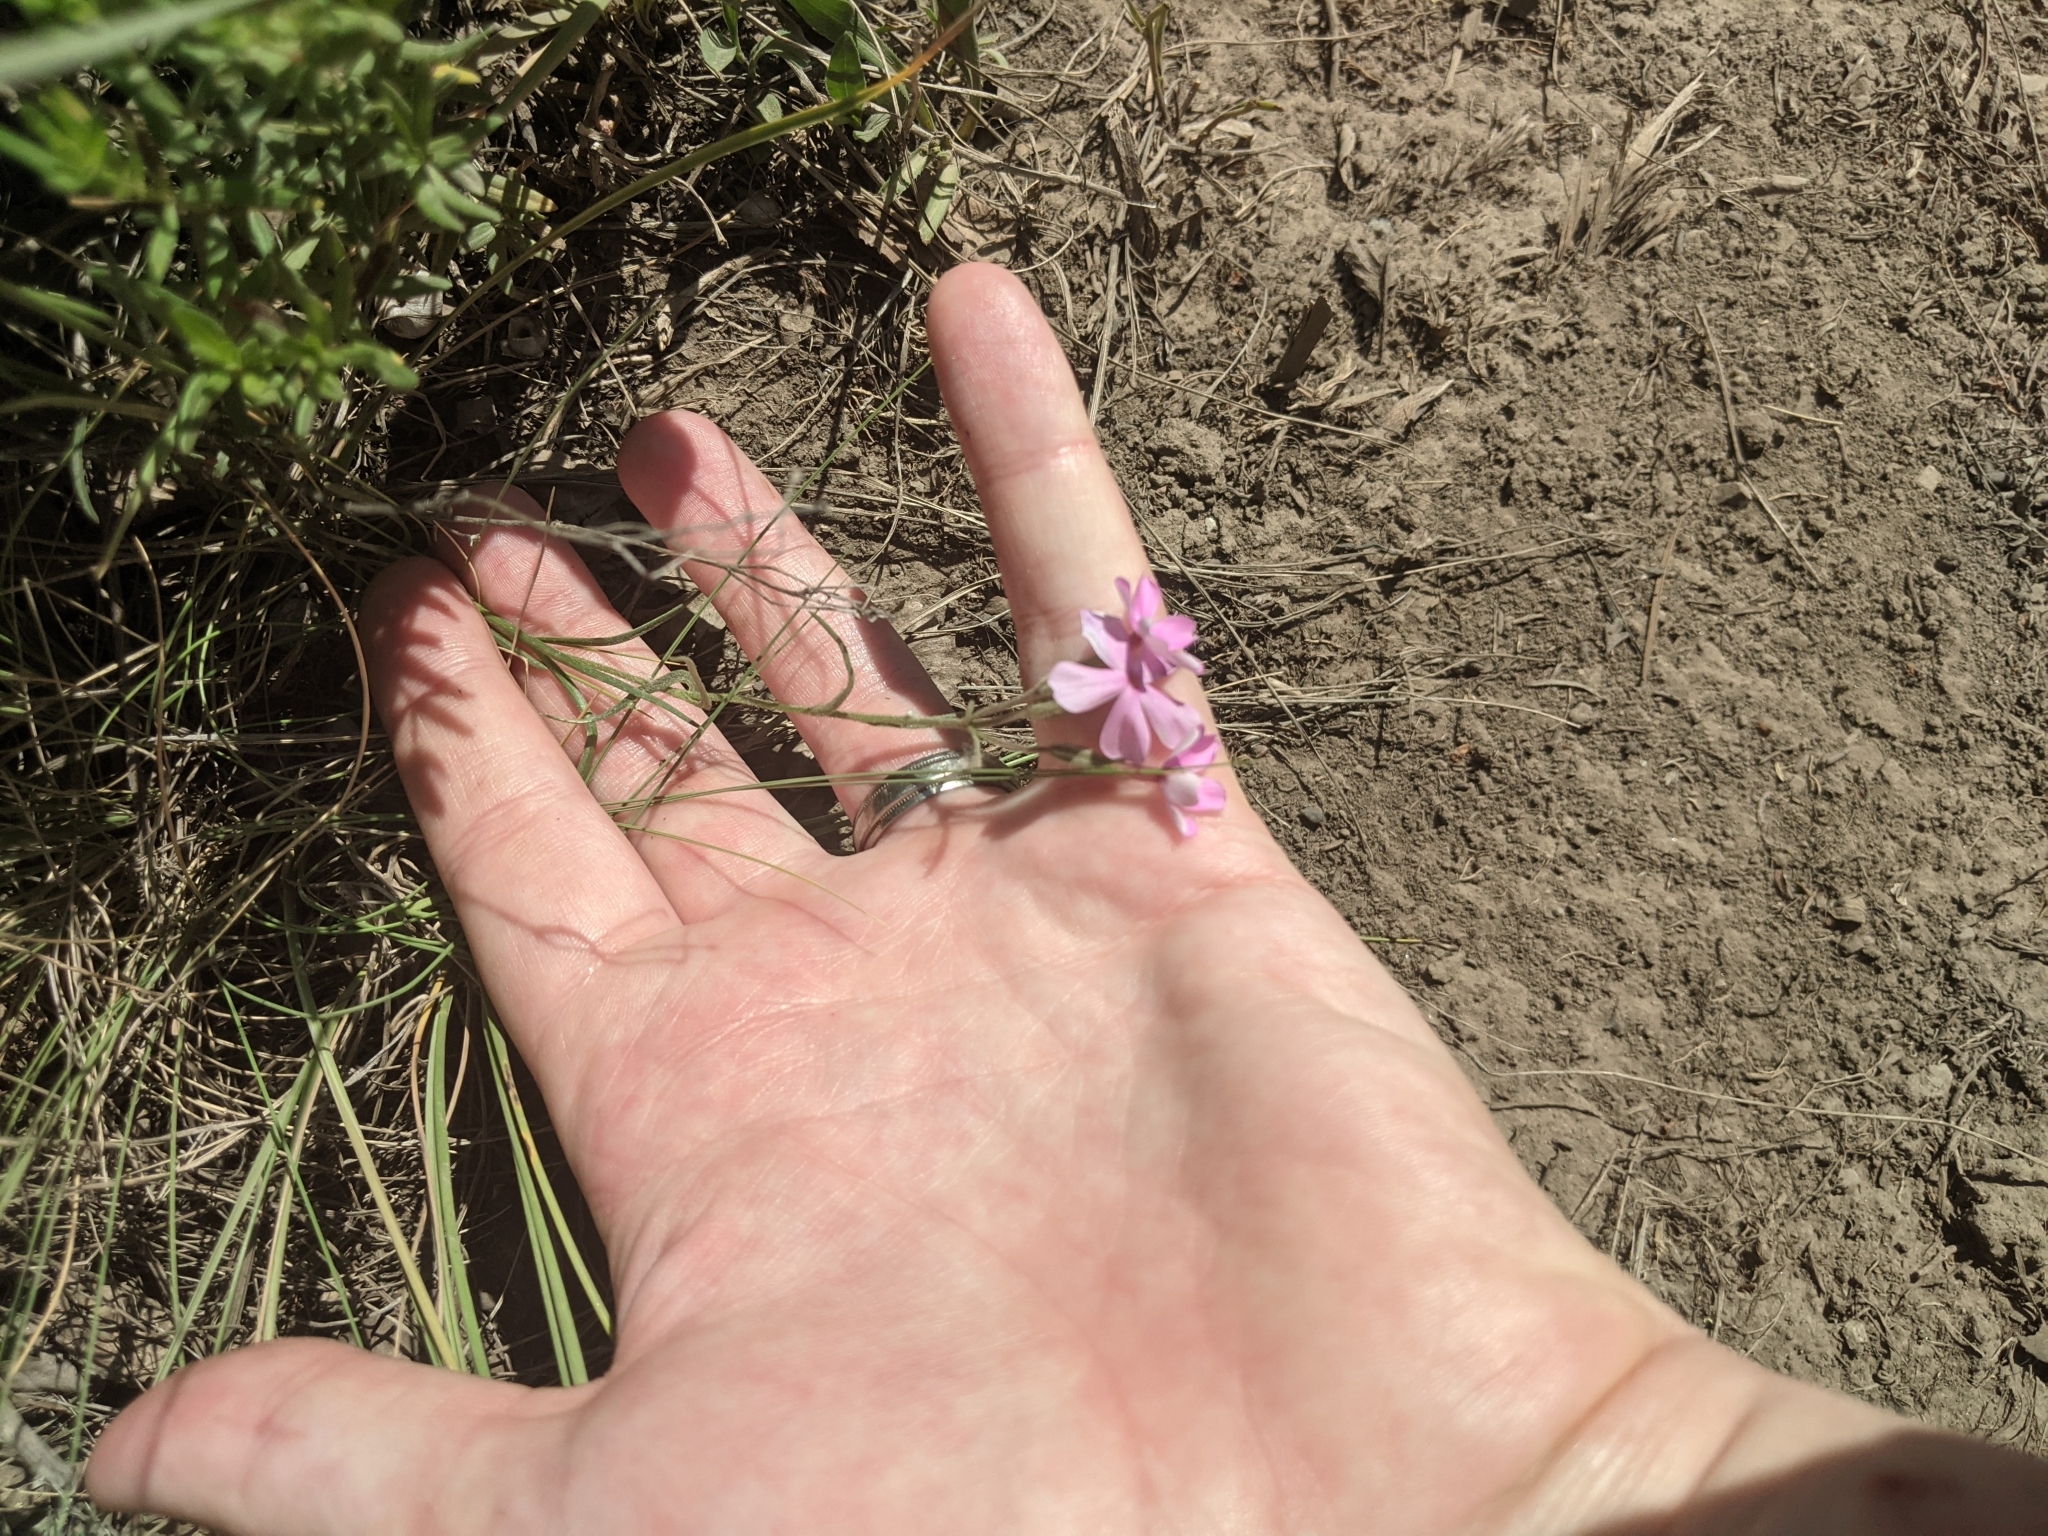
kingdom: Plantae
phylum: Tracheophyta
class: Magnoliopsida
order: Ericales
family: Polemoniaceae
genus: Phlox
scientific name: Phlox longifolia
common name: Longleaf phlox
